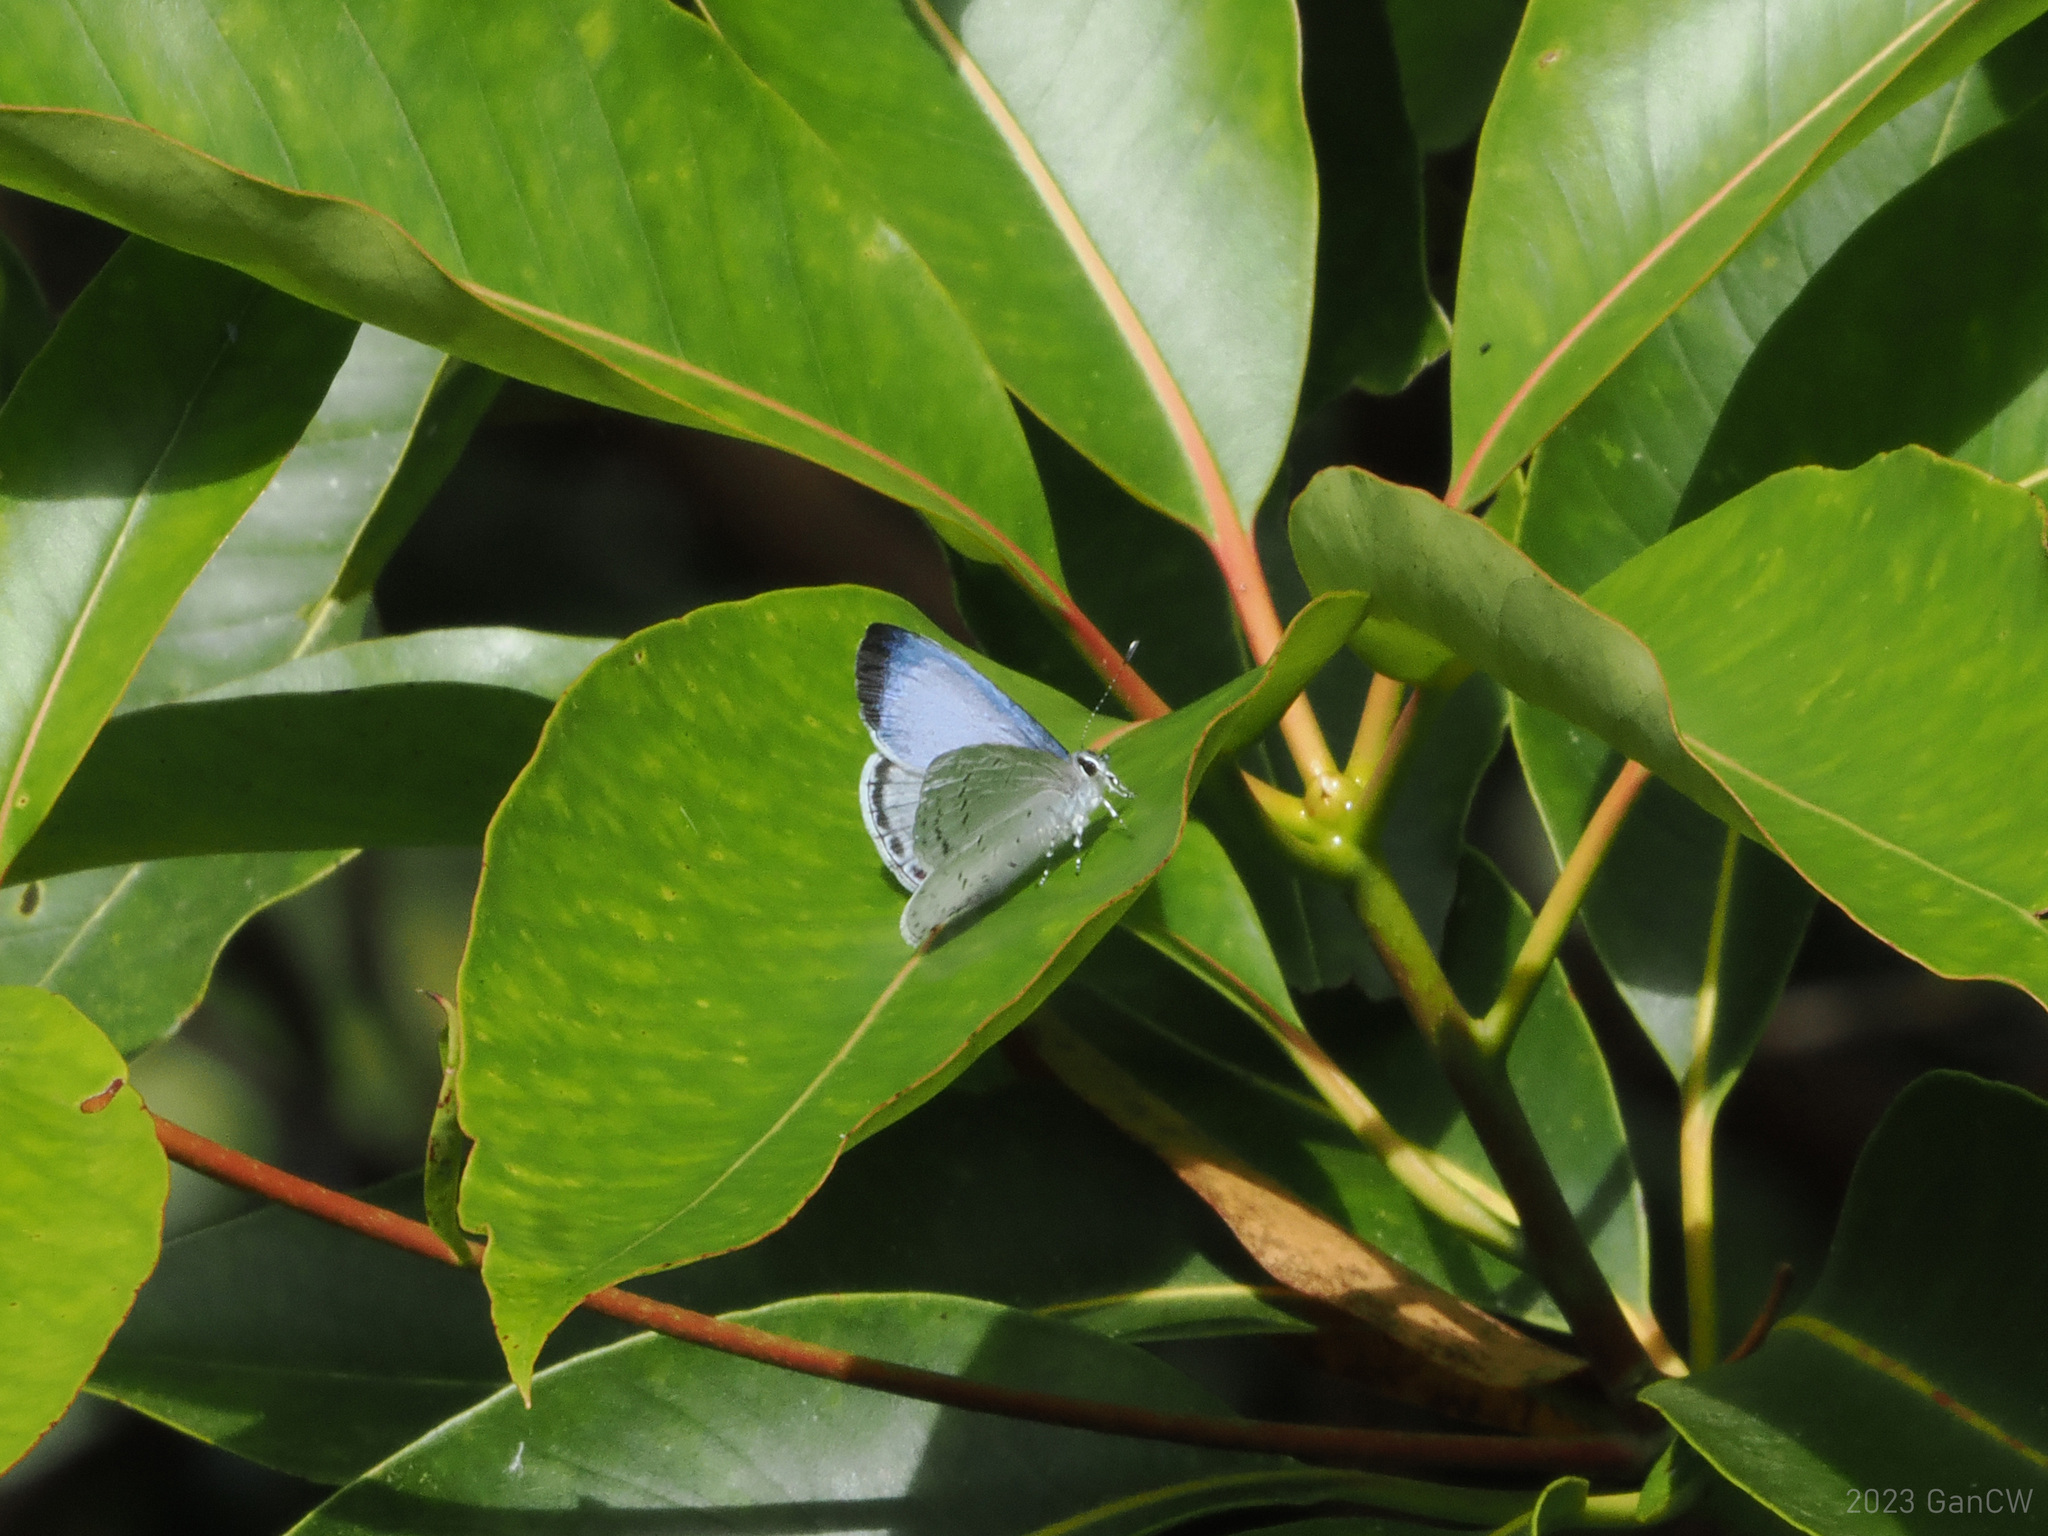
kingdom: Animalia
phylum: Arthropoda
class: Insecta
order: Lepidoptera
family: Lycaenidae
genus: Uranobothria
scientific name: Uranobothria celebica
